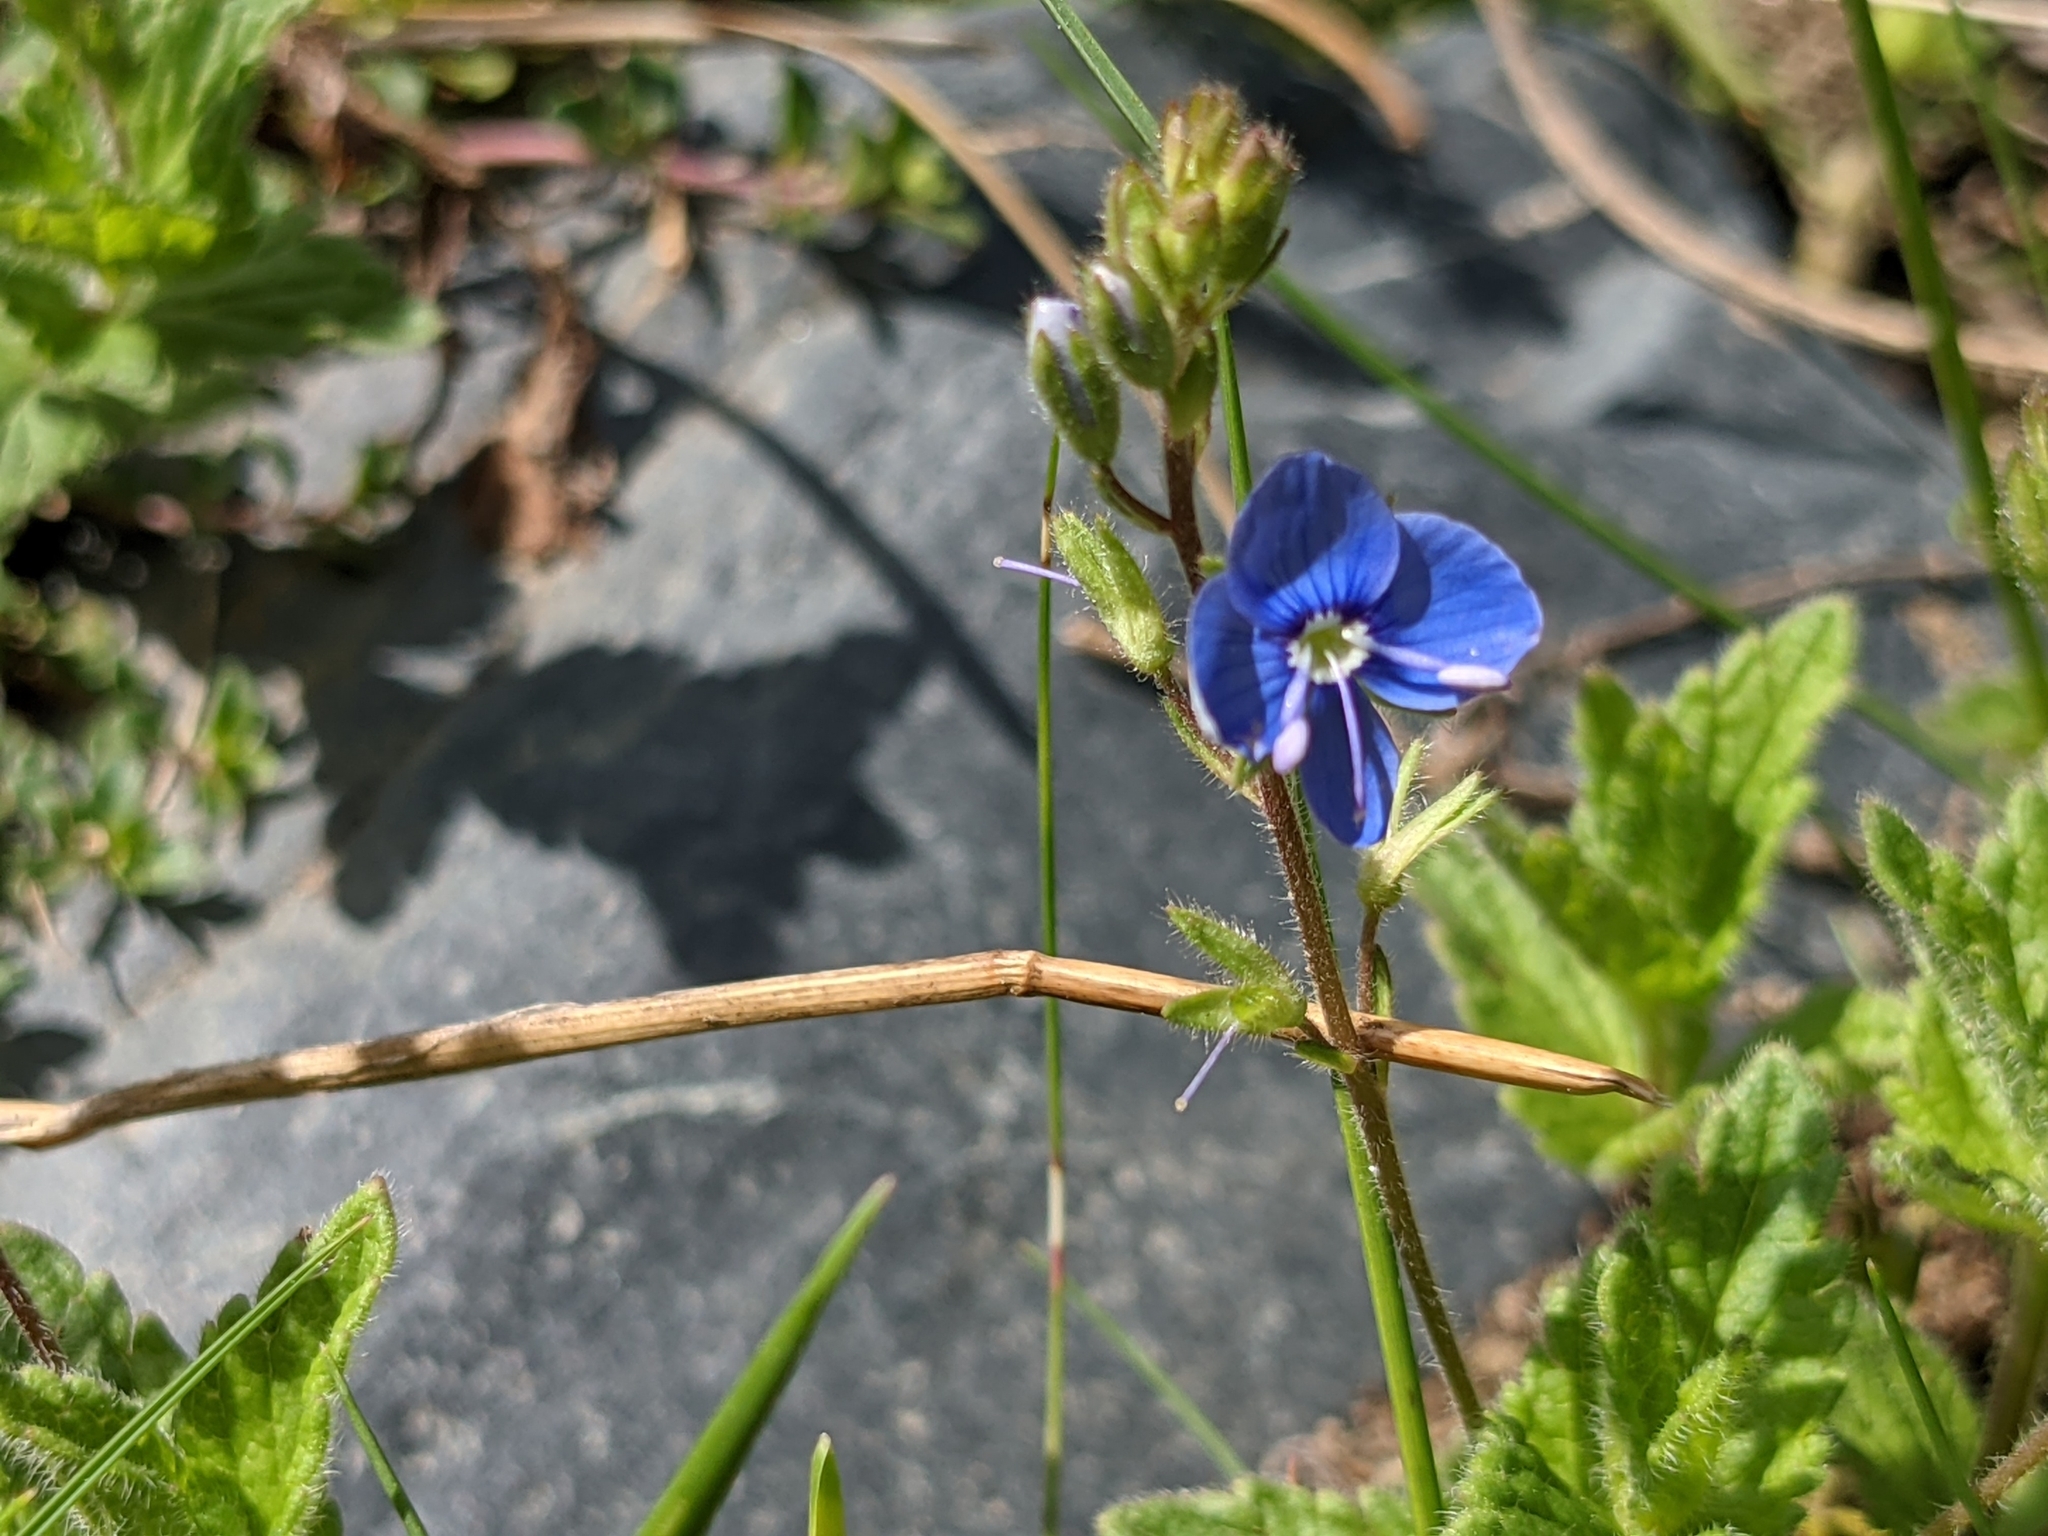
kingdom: Plantae
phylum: Tracheophyta
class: Magnoliopsida
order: Lamiales
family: Plantaginaceae
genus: Veronica
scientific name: Veronica chamaedrys
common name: Germander speedwell
